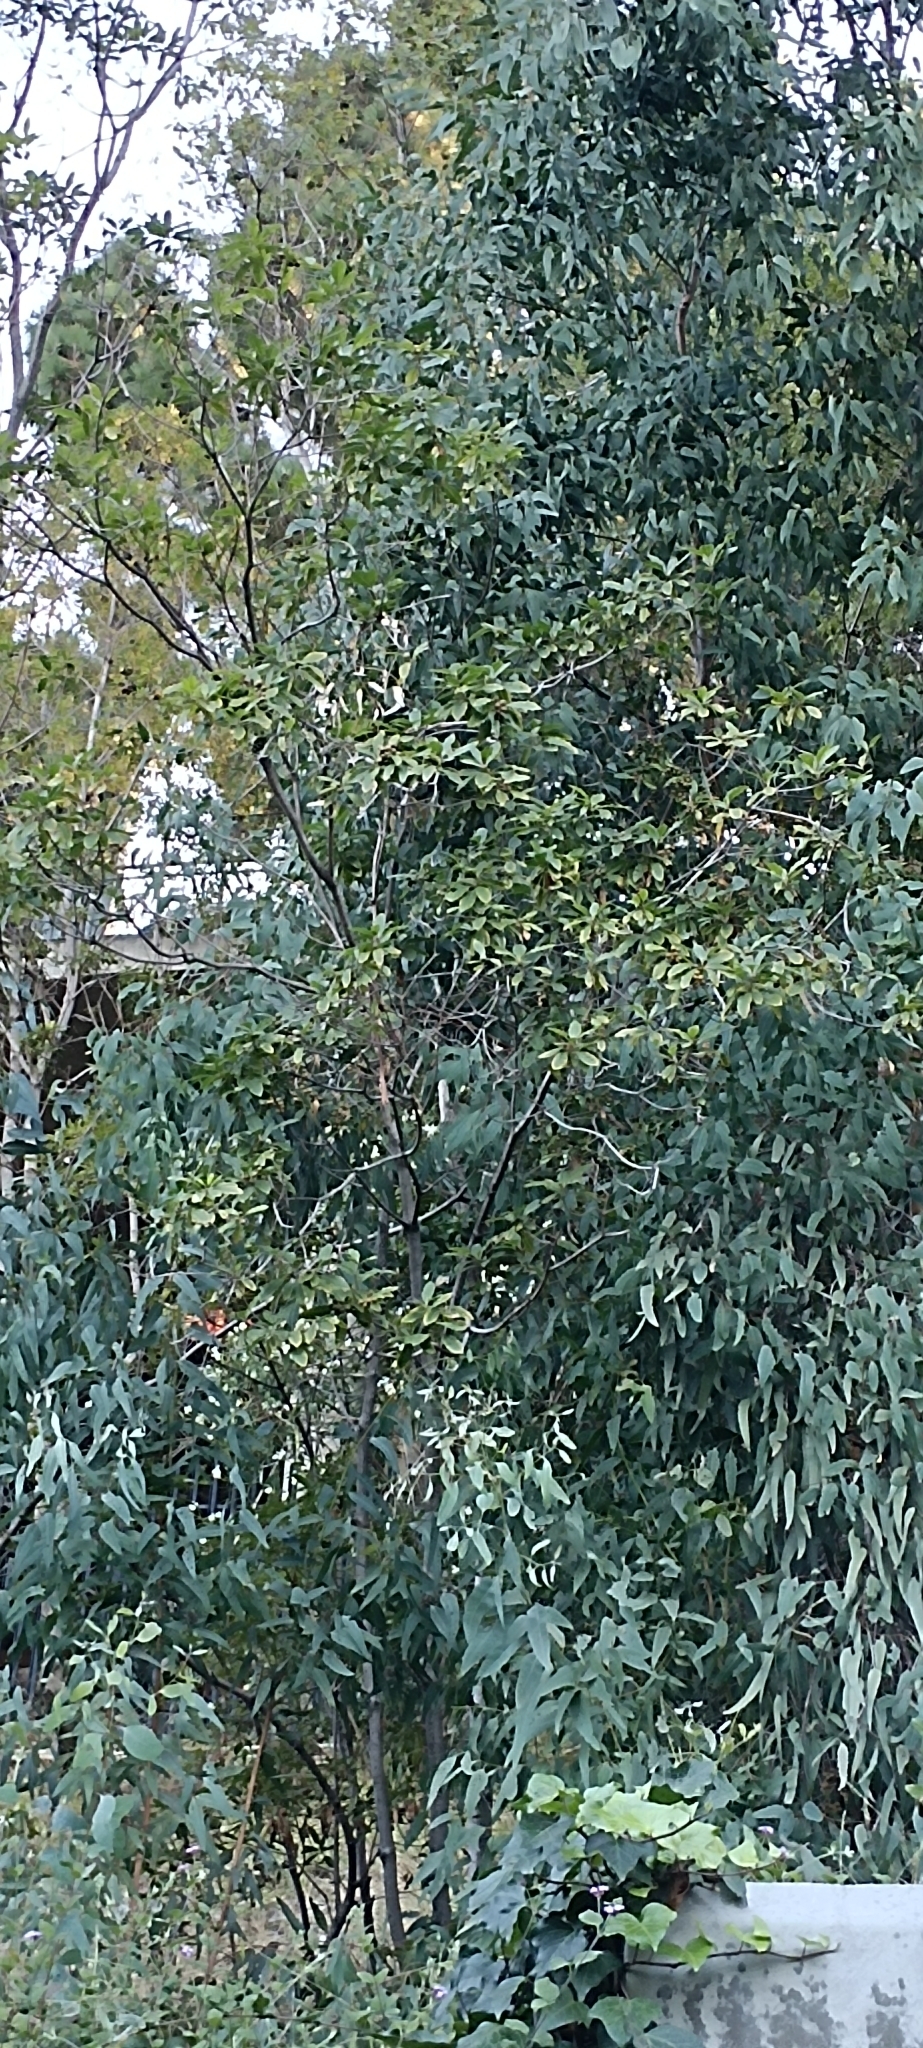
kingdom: Plantae
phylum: Tracheophyta
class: Magnoliopsida
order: Rosales
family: Rhamnaceae
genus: Frangula
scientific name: Frangula californica
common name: California buckthorn
